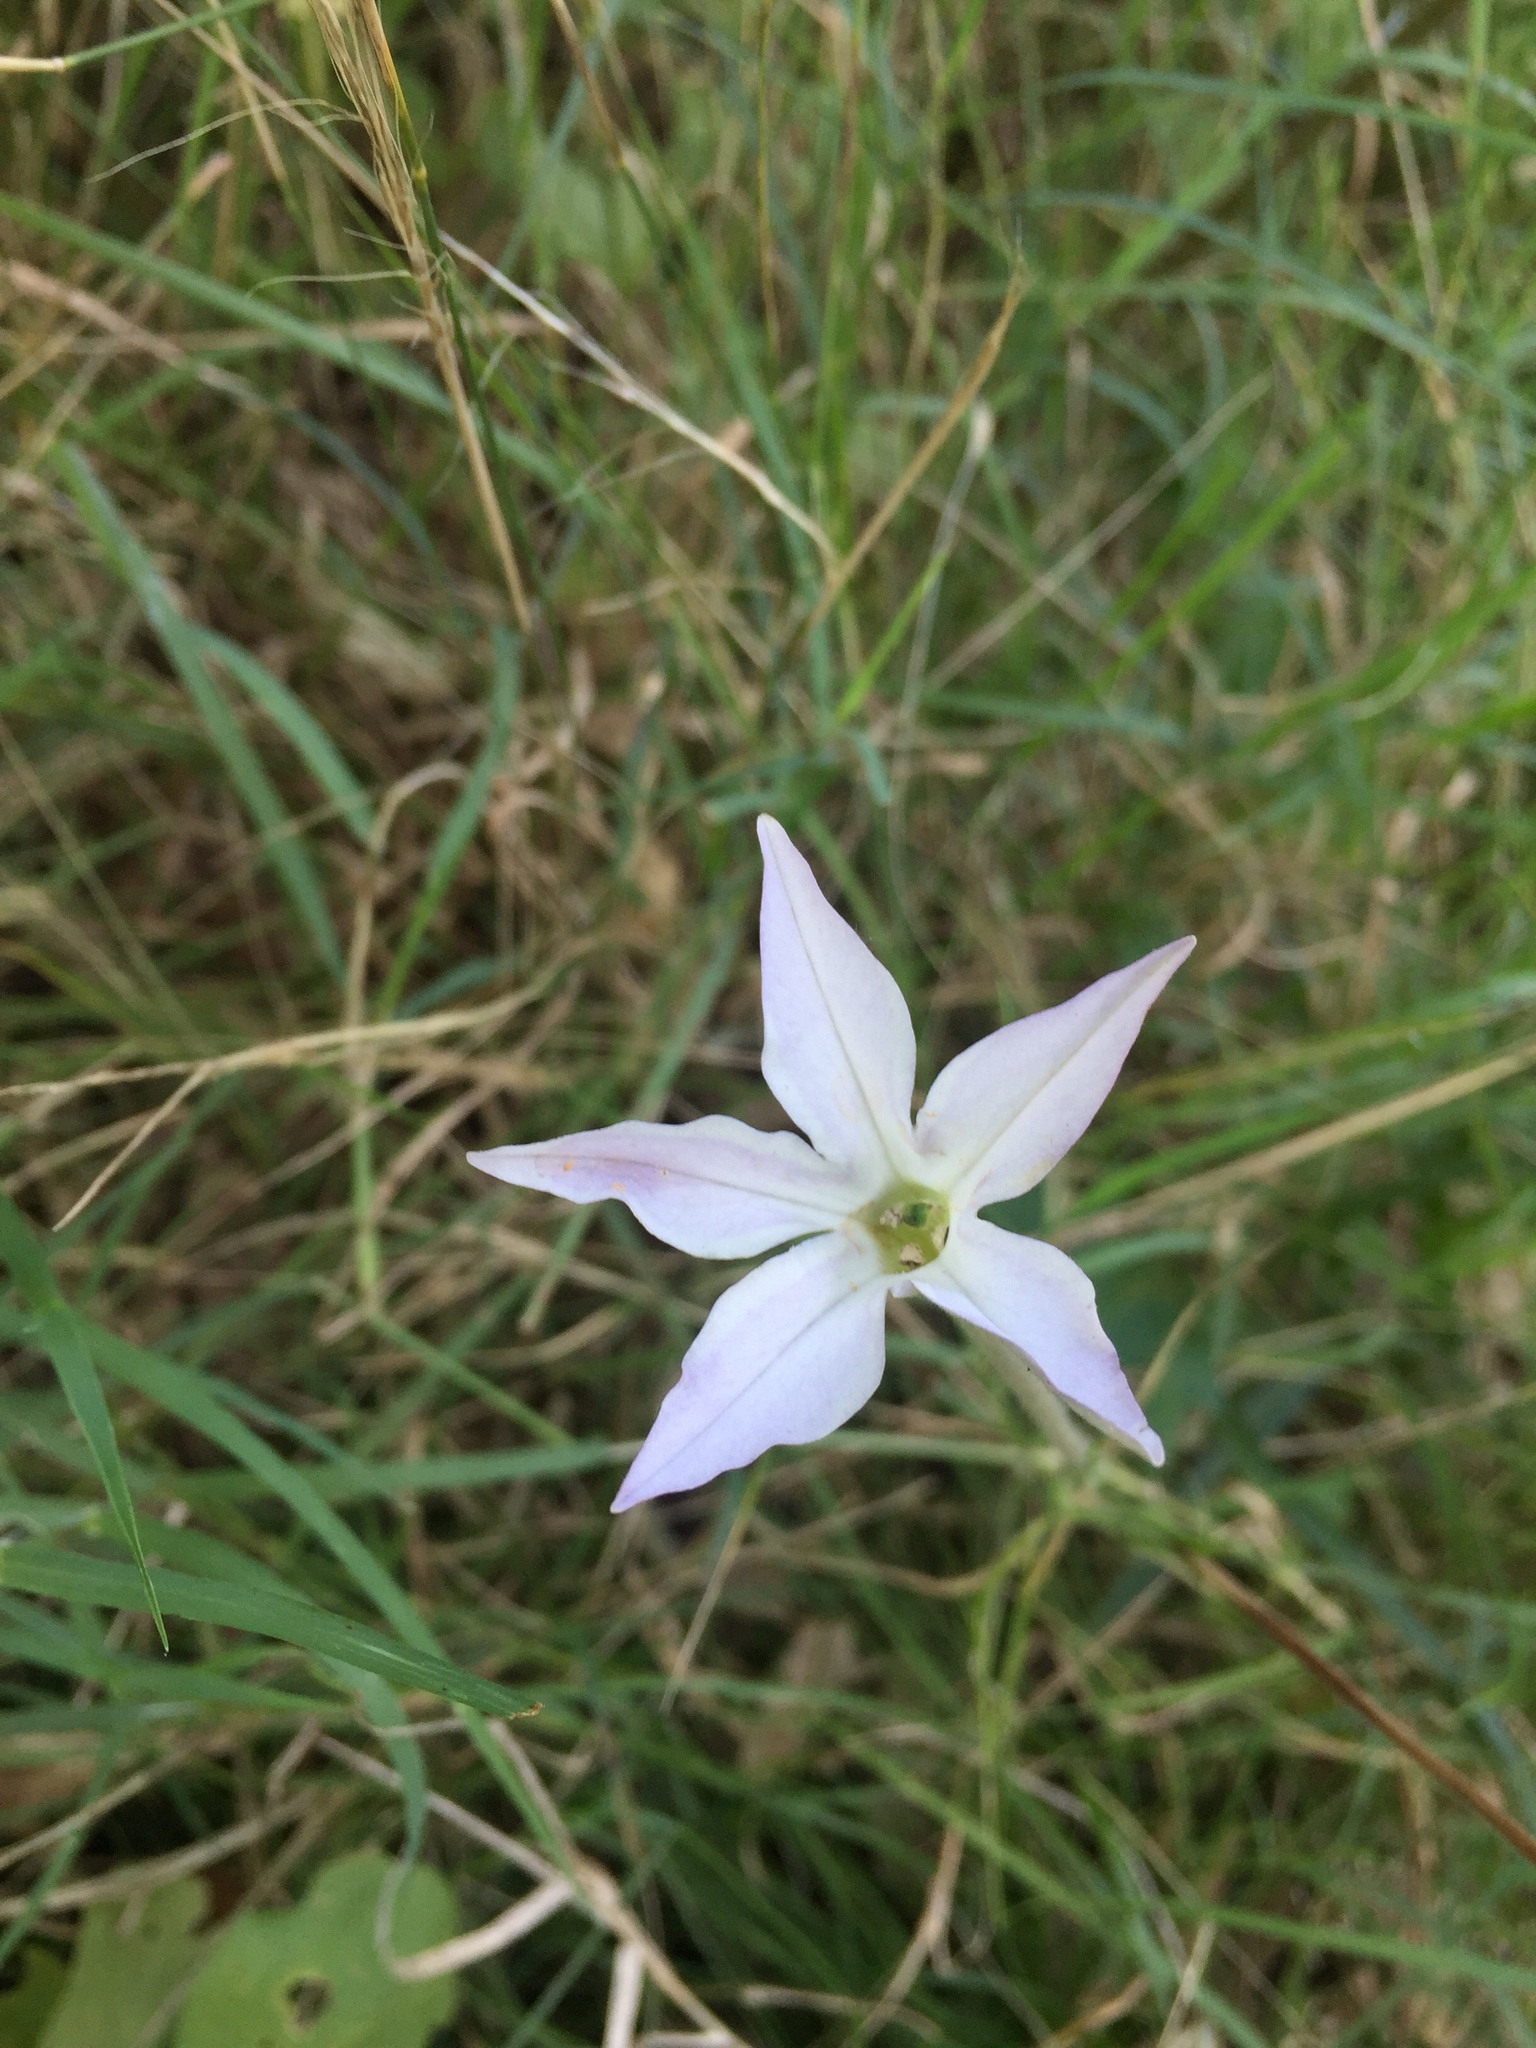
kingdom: Plantae
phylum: Tracheophyta
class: Magnoliopsida
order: Solanales
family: Solanaceae
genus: Nicotiana
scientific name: Nicotiana longiflora
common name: Long-flowered tobacco
